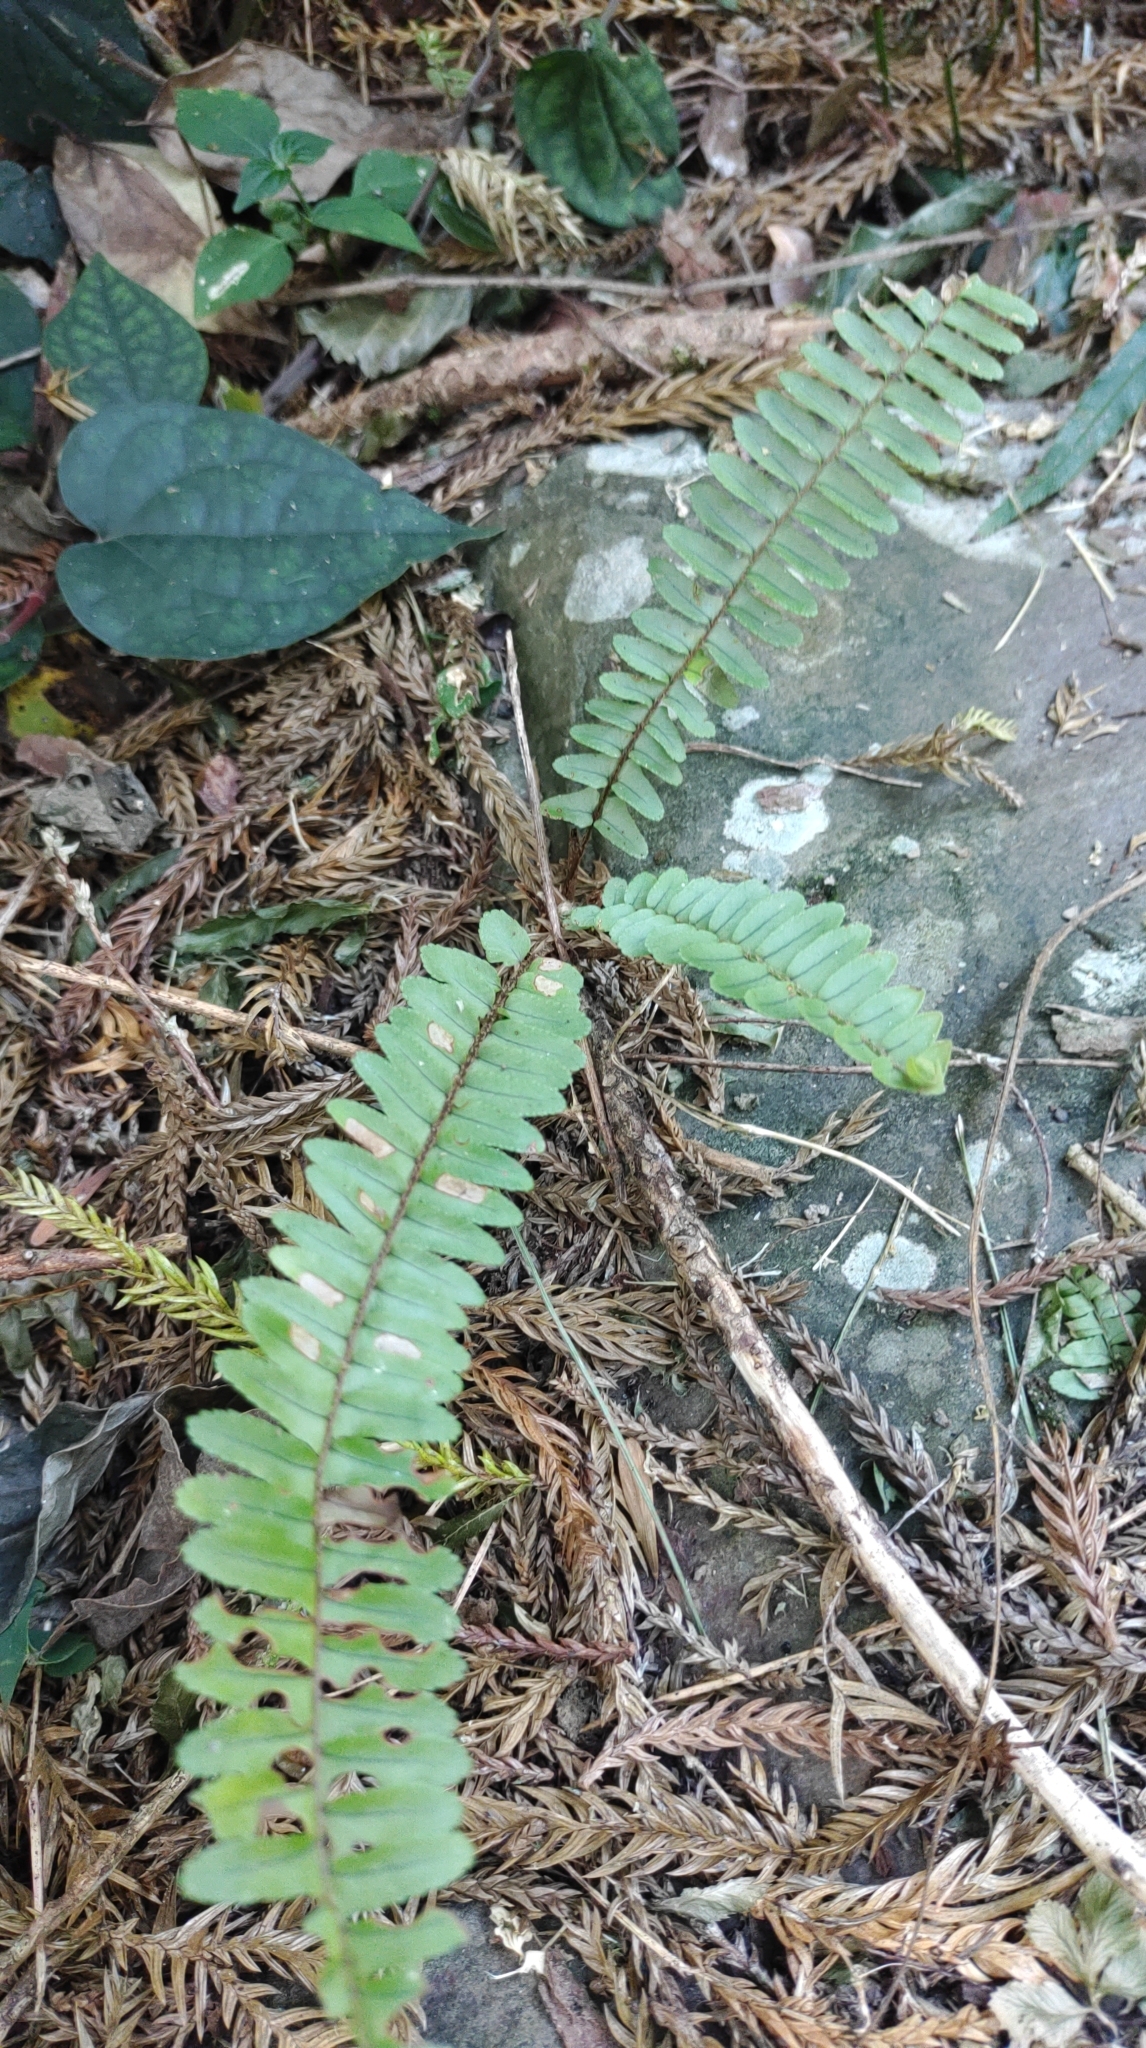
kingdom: Plantae
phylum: Tracheophyta
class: Polypodiopsida
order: Polypodiales
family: Nephrolepidaceae
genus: Nephrolepis
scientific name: Nephrolepis cordifolia
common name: Narrow swordfern
